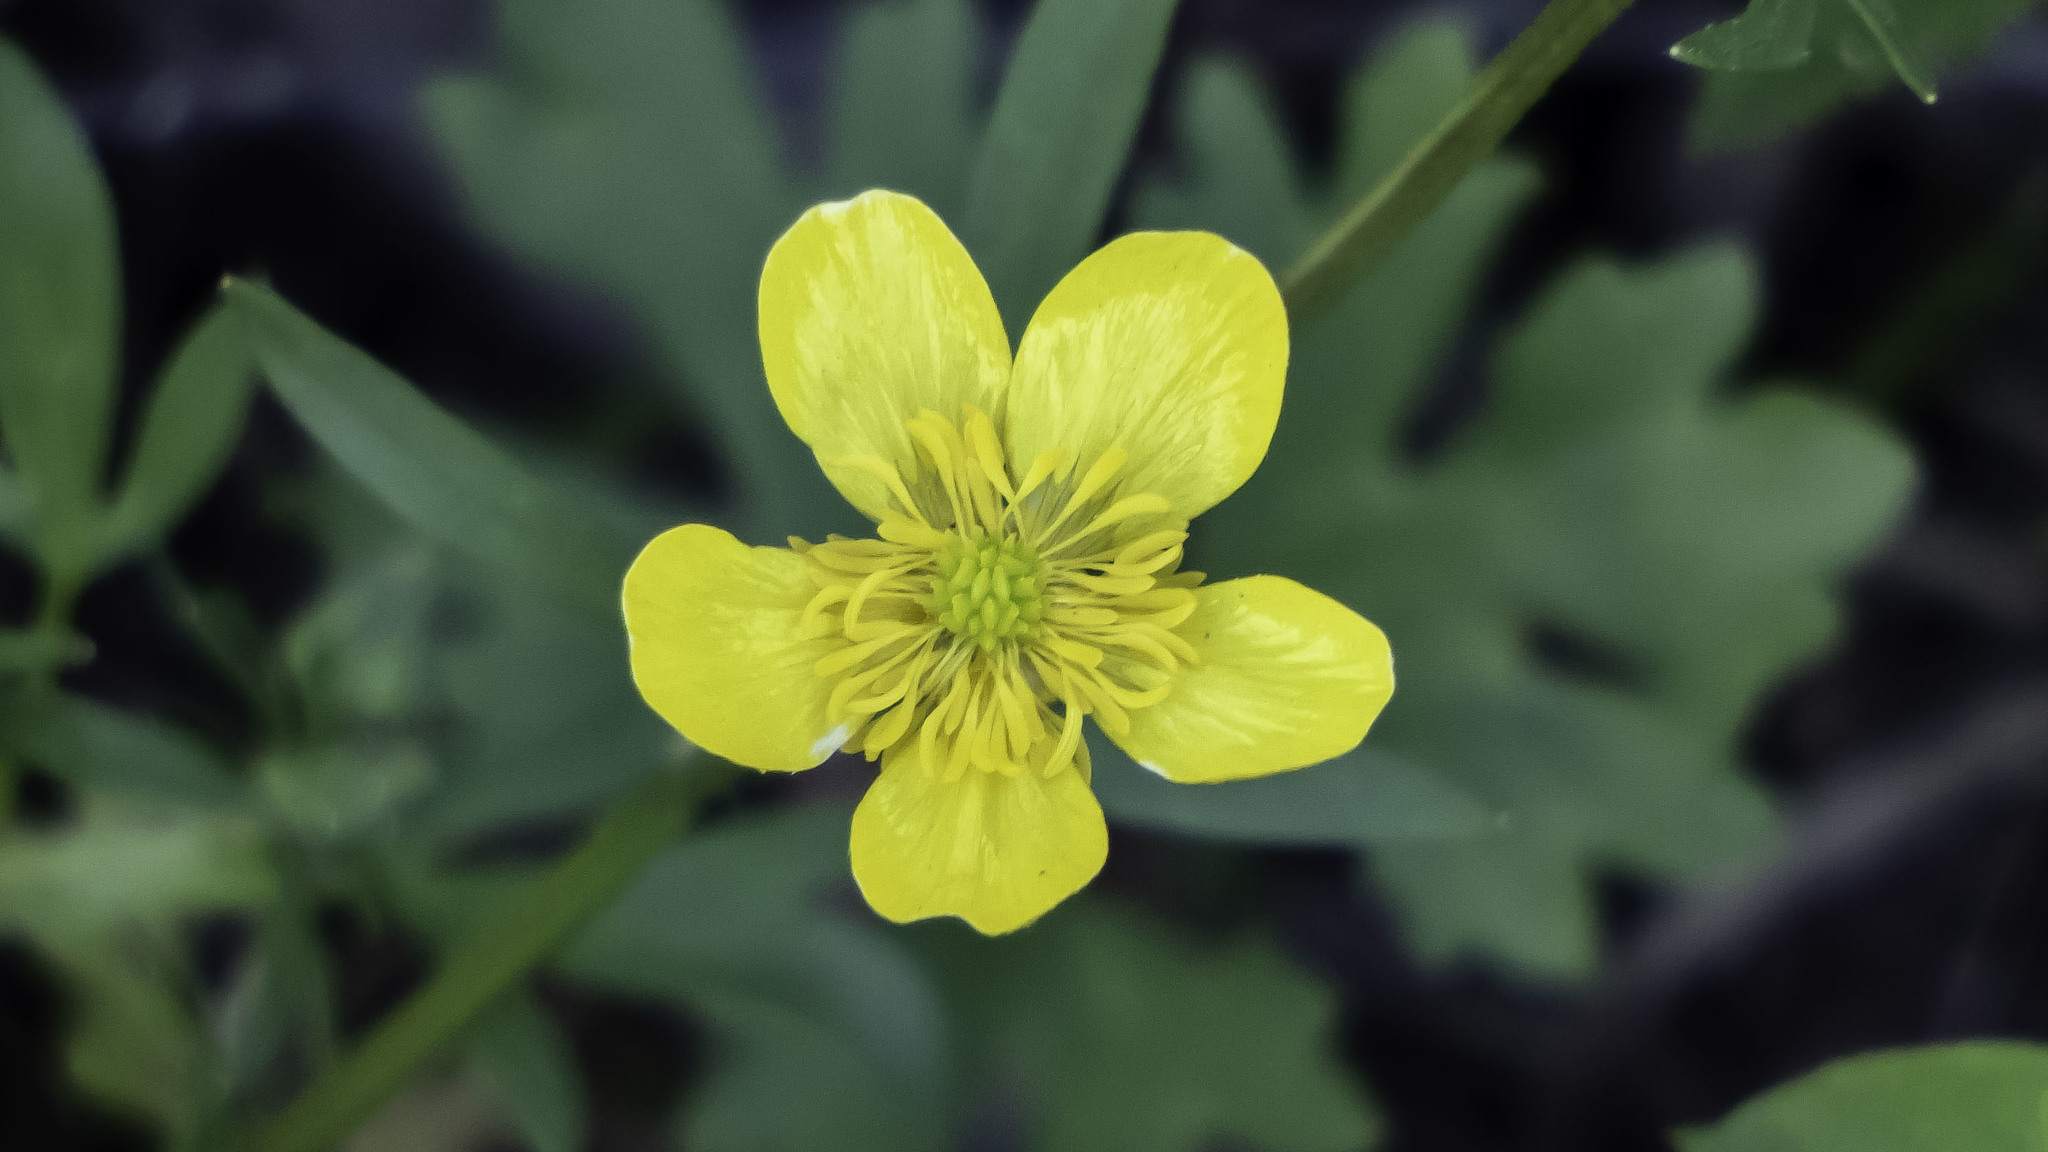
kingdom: Plantae
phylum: Tracheophyta
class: Magnoliopsida
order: Ranunculales
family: Ranunculaceae
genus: Ranunculus
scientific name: Ranunculus repens
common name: Creeping buttercup
